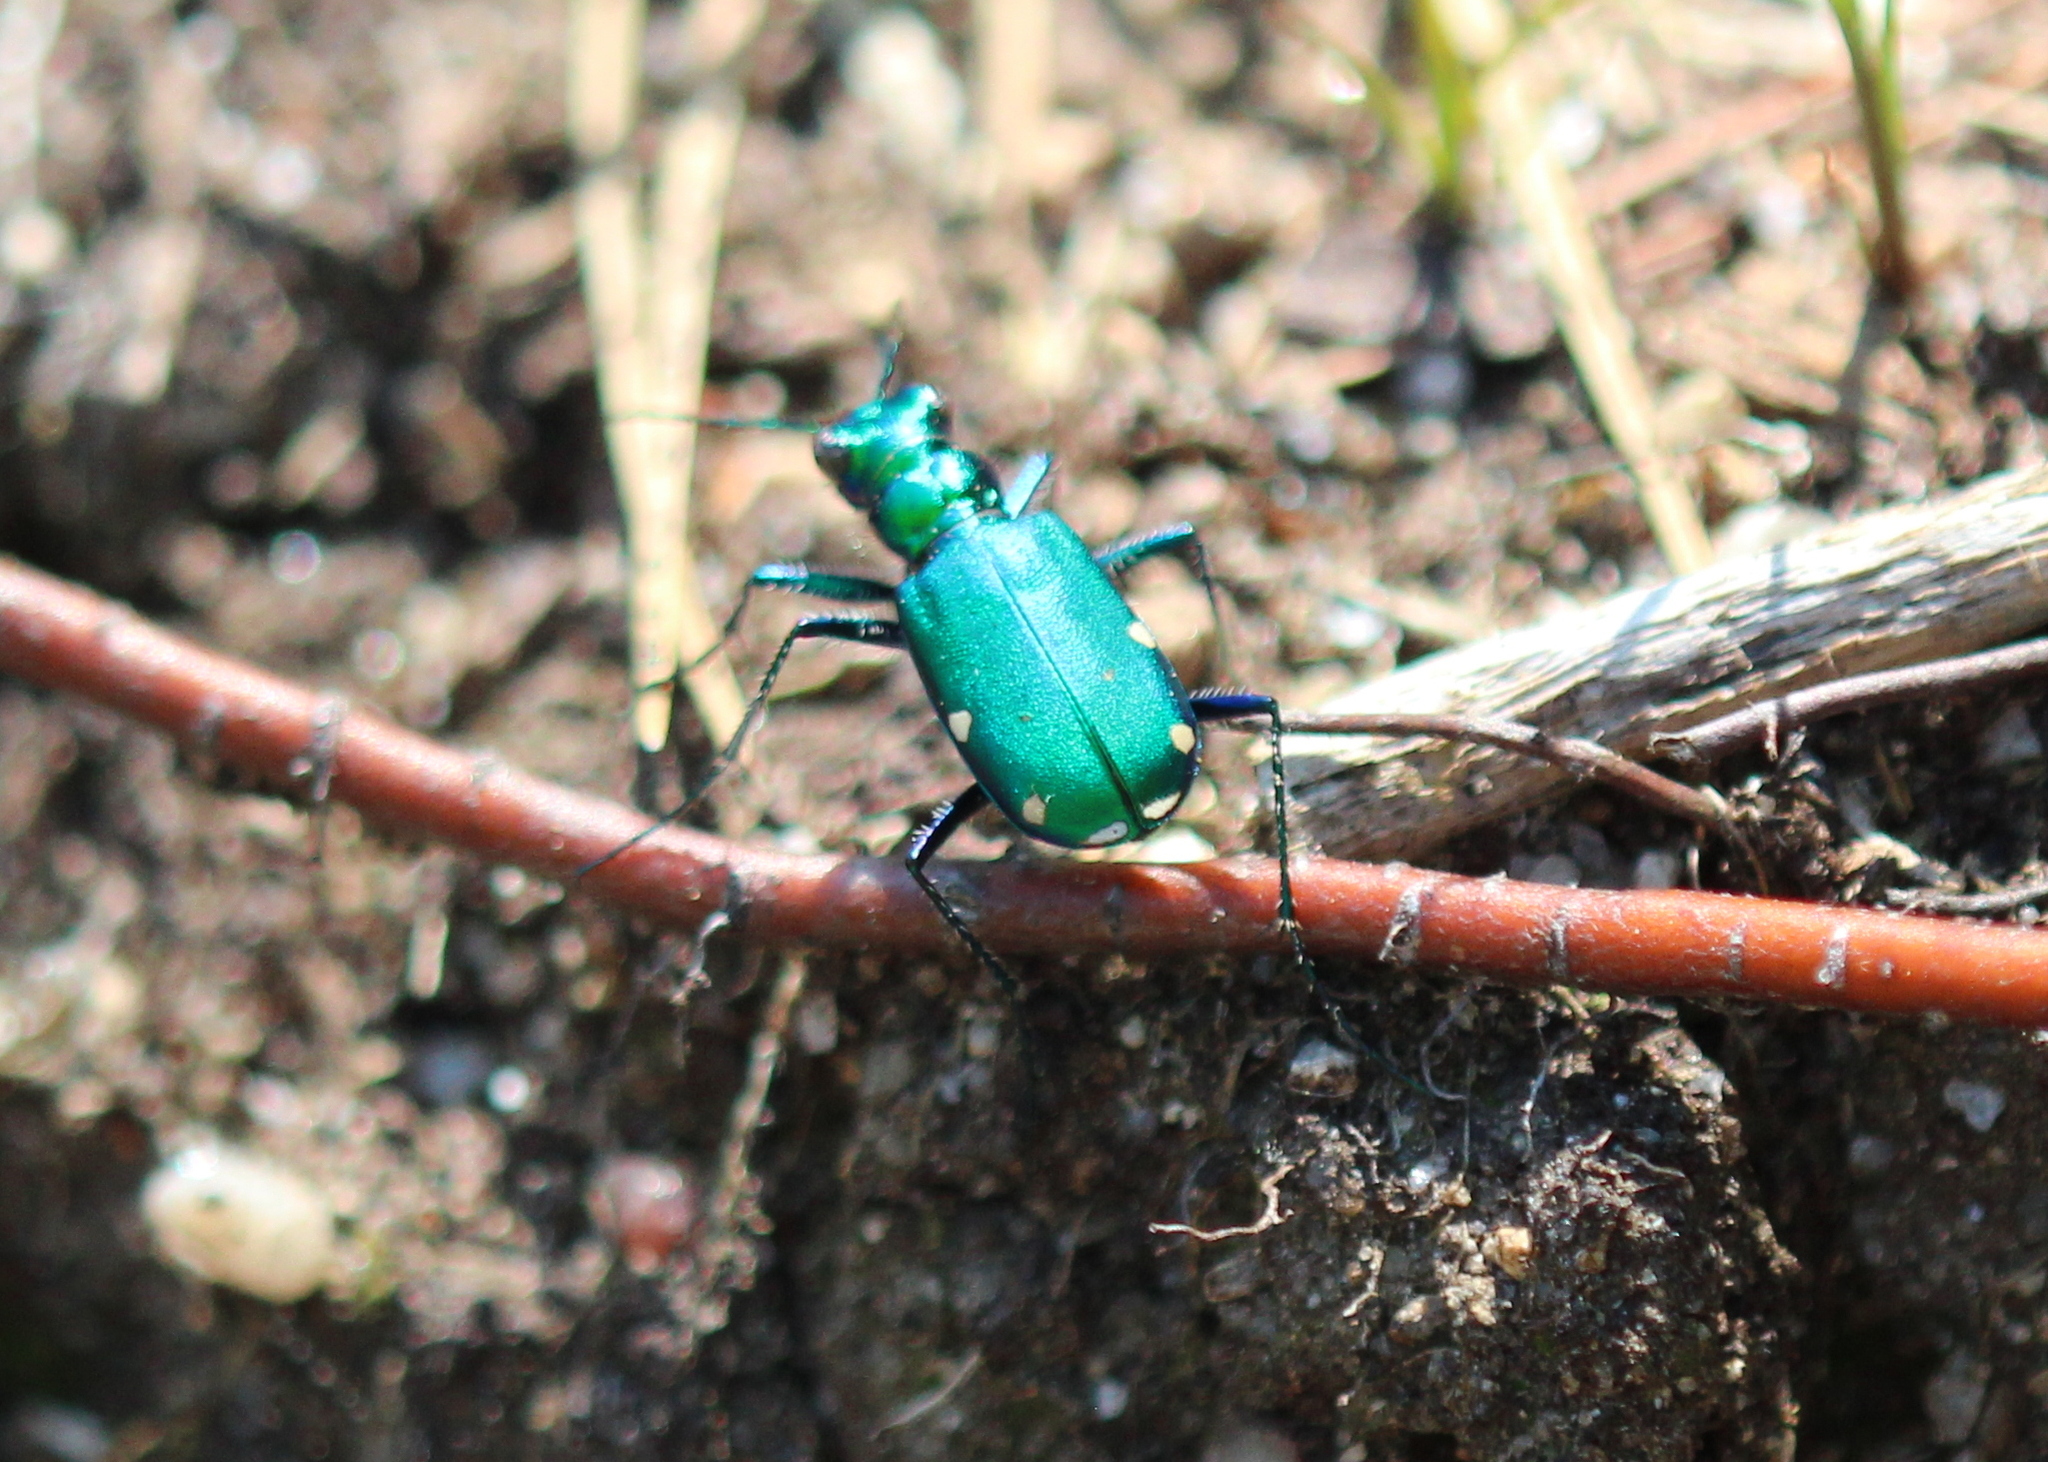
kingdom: Animalia
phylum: Arthropoda
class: Insecta
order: Coleoptera
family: Carabidae
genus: Cicindela
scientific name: Cicindela sexguttata
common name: Six-spotted tiger beetle
